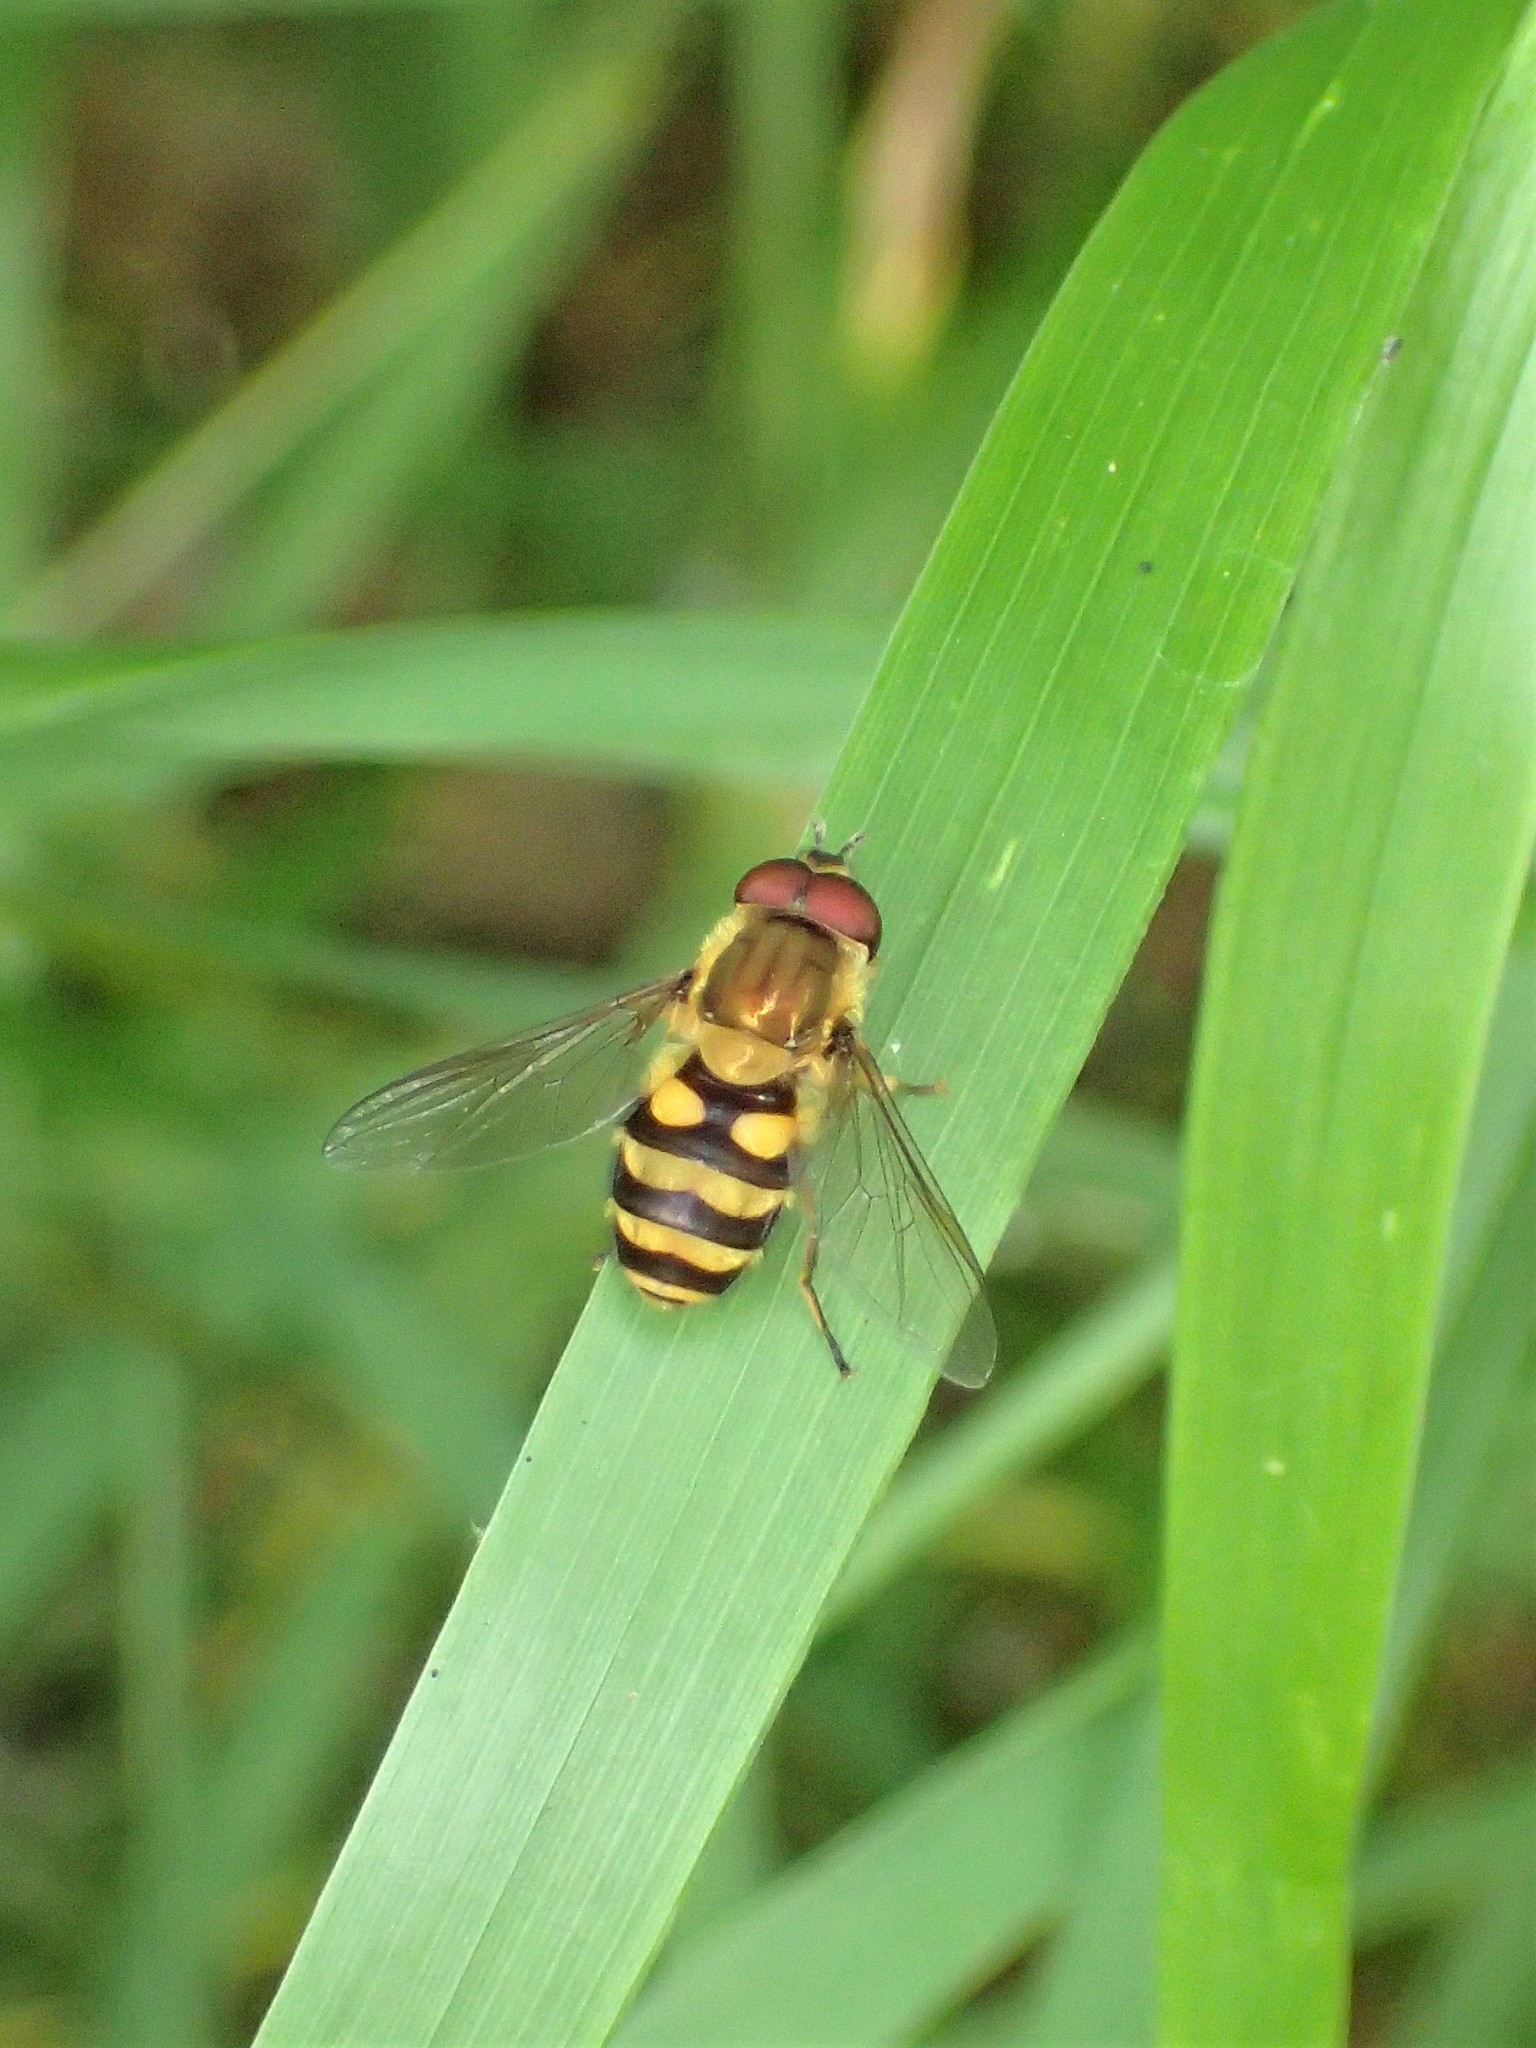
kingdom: Animalia
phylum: Arthropoda
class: Insecta
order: Diptera
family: Syrphidae
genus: Syrphus
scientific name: Syrphus
